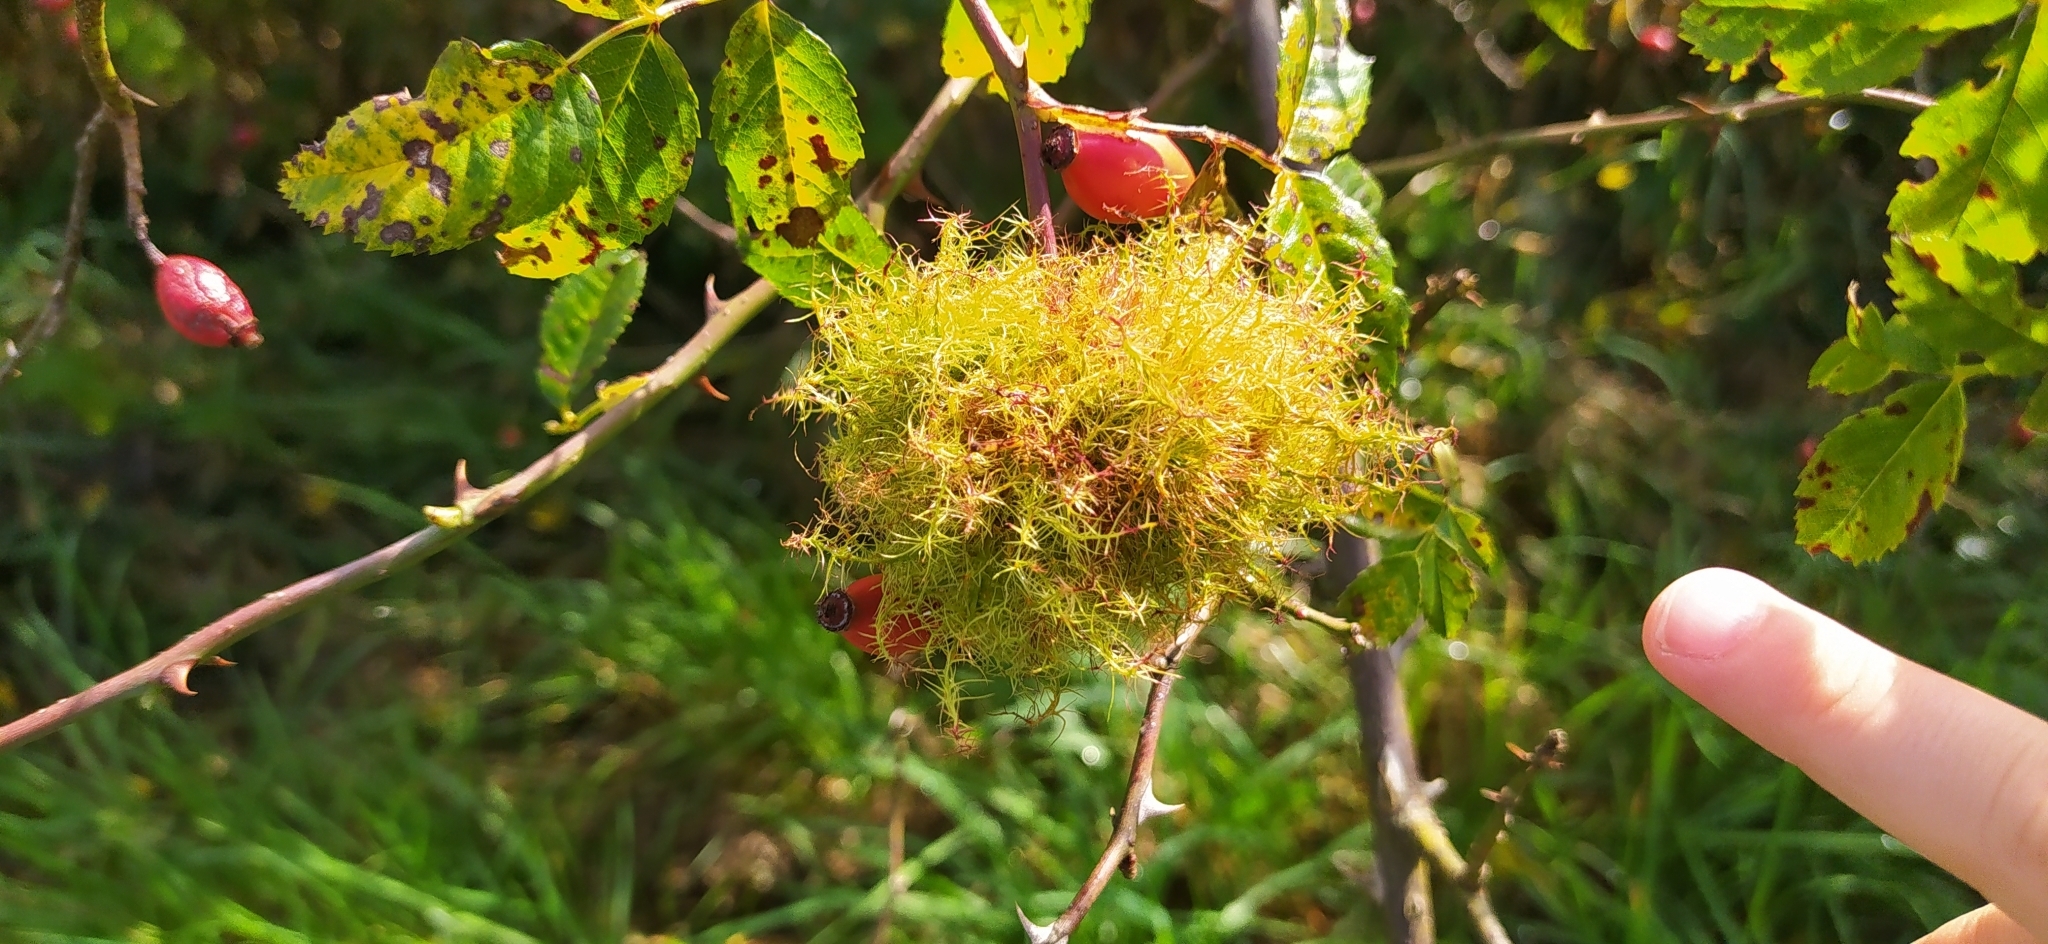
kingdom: Animalia
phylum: Arthropoda
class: Insecta
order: Hymenoptera
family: Cynipidae
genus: Diplolepis
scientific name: Diplolepis rosae
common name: Bedeguar gall
